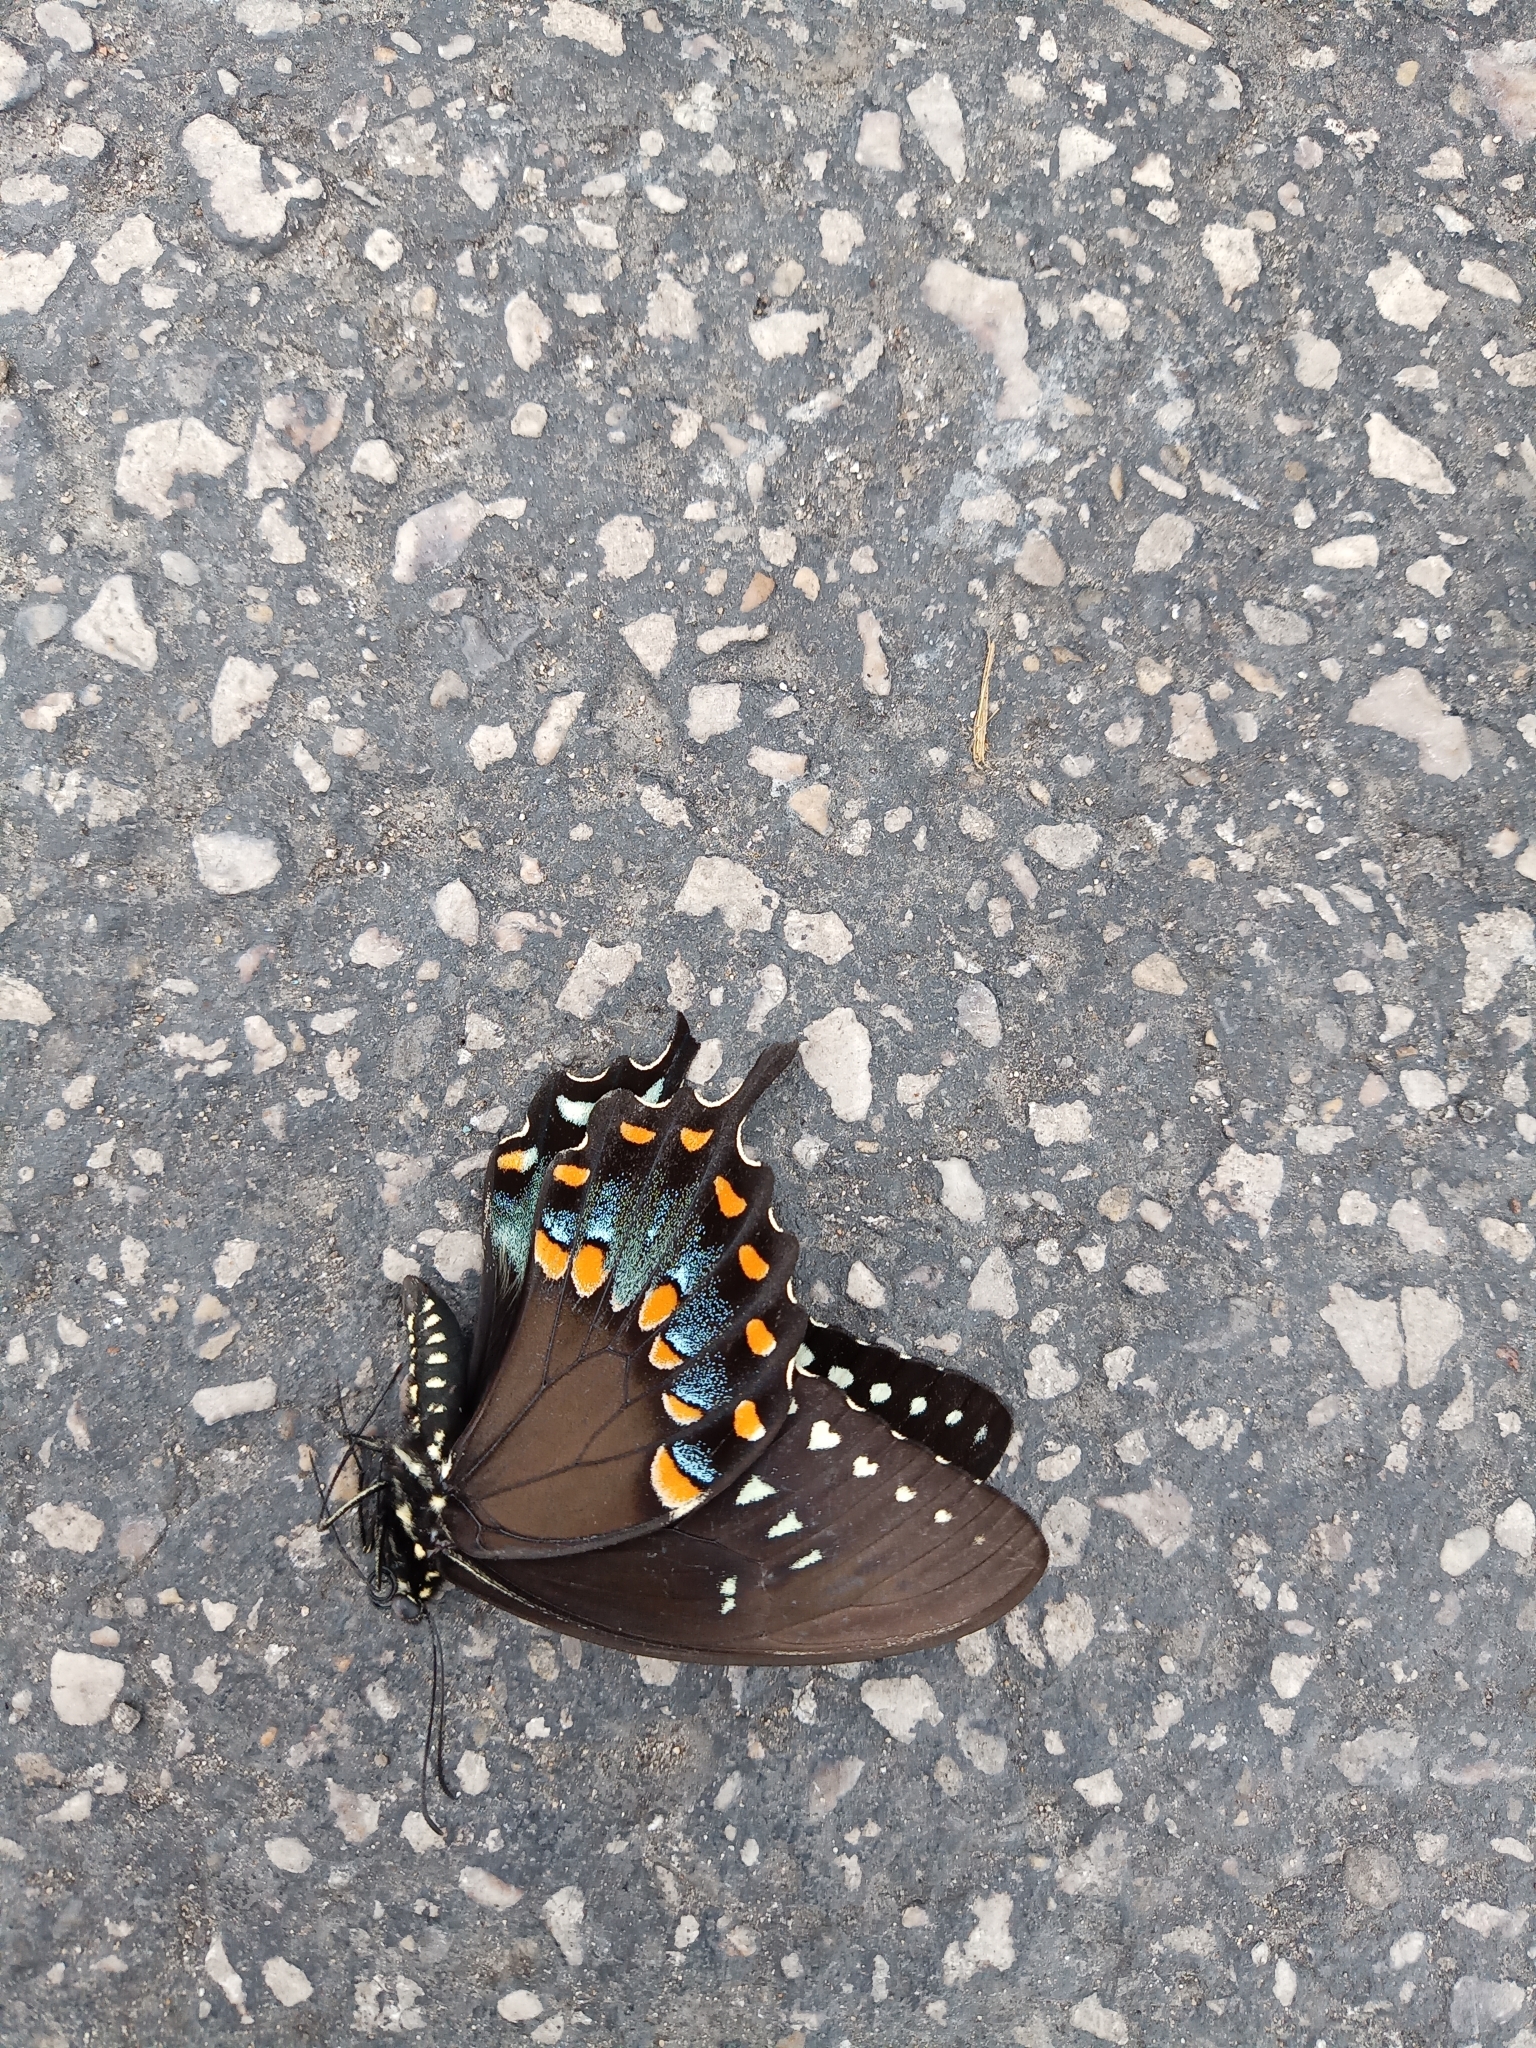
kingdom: Animalia
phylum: Arthropoda
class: Insecta
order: Lepidoptera
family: Papilionidae
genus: Papilio
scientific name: Papilio troilus
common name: Spicebush swallowtail
